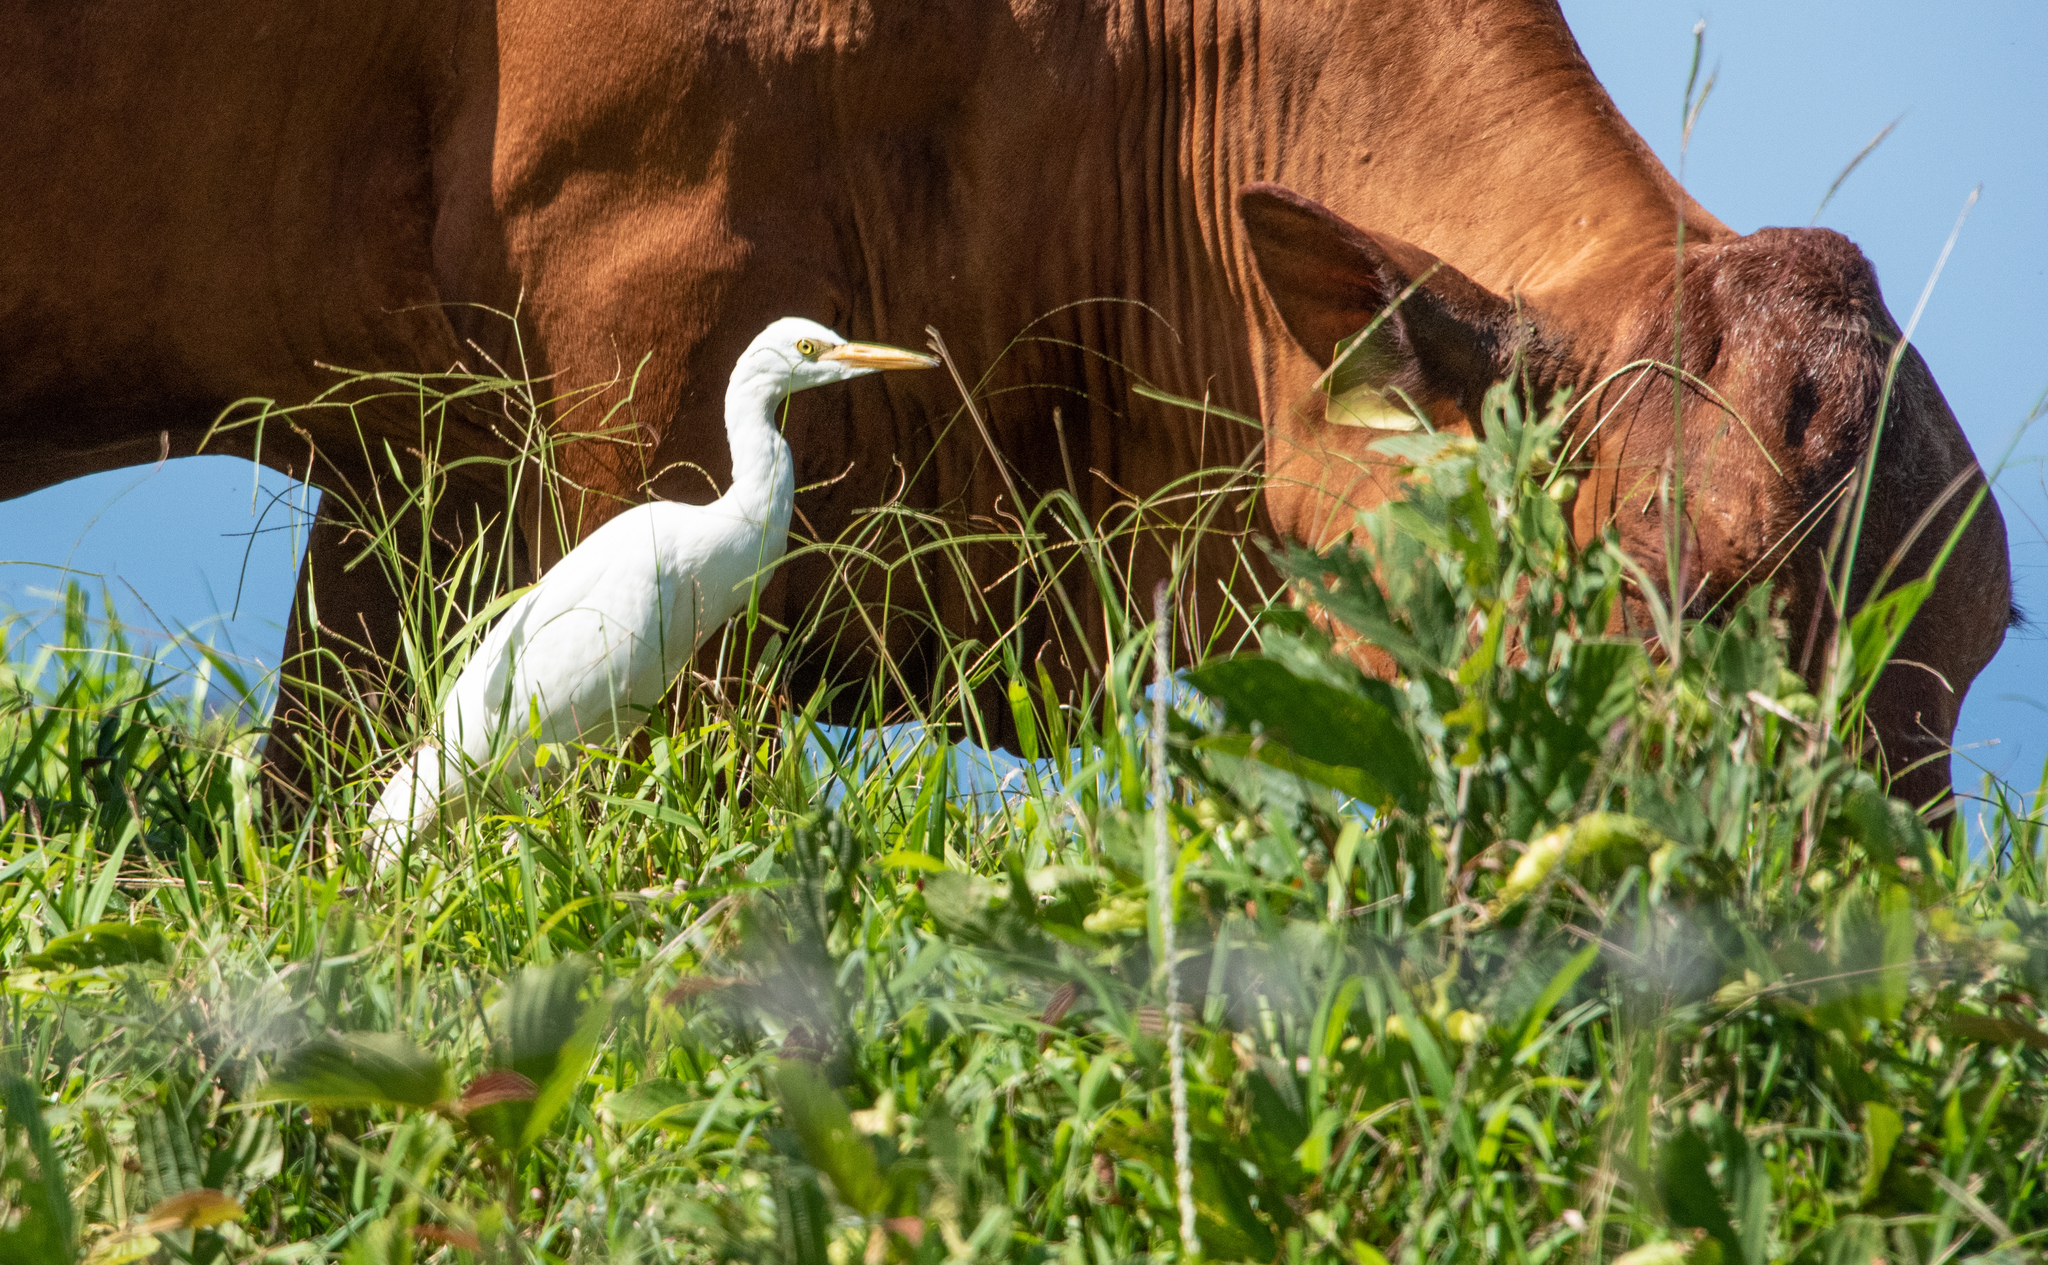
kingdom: Animalia
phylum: Chordata
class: Aves
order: Pelecaniformes
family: Ardeidae
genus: Bubulcus
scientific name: Bubulcus ibis
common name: Cattle egret
